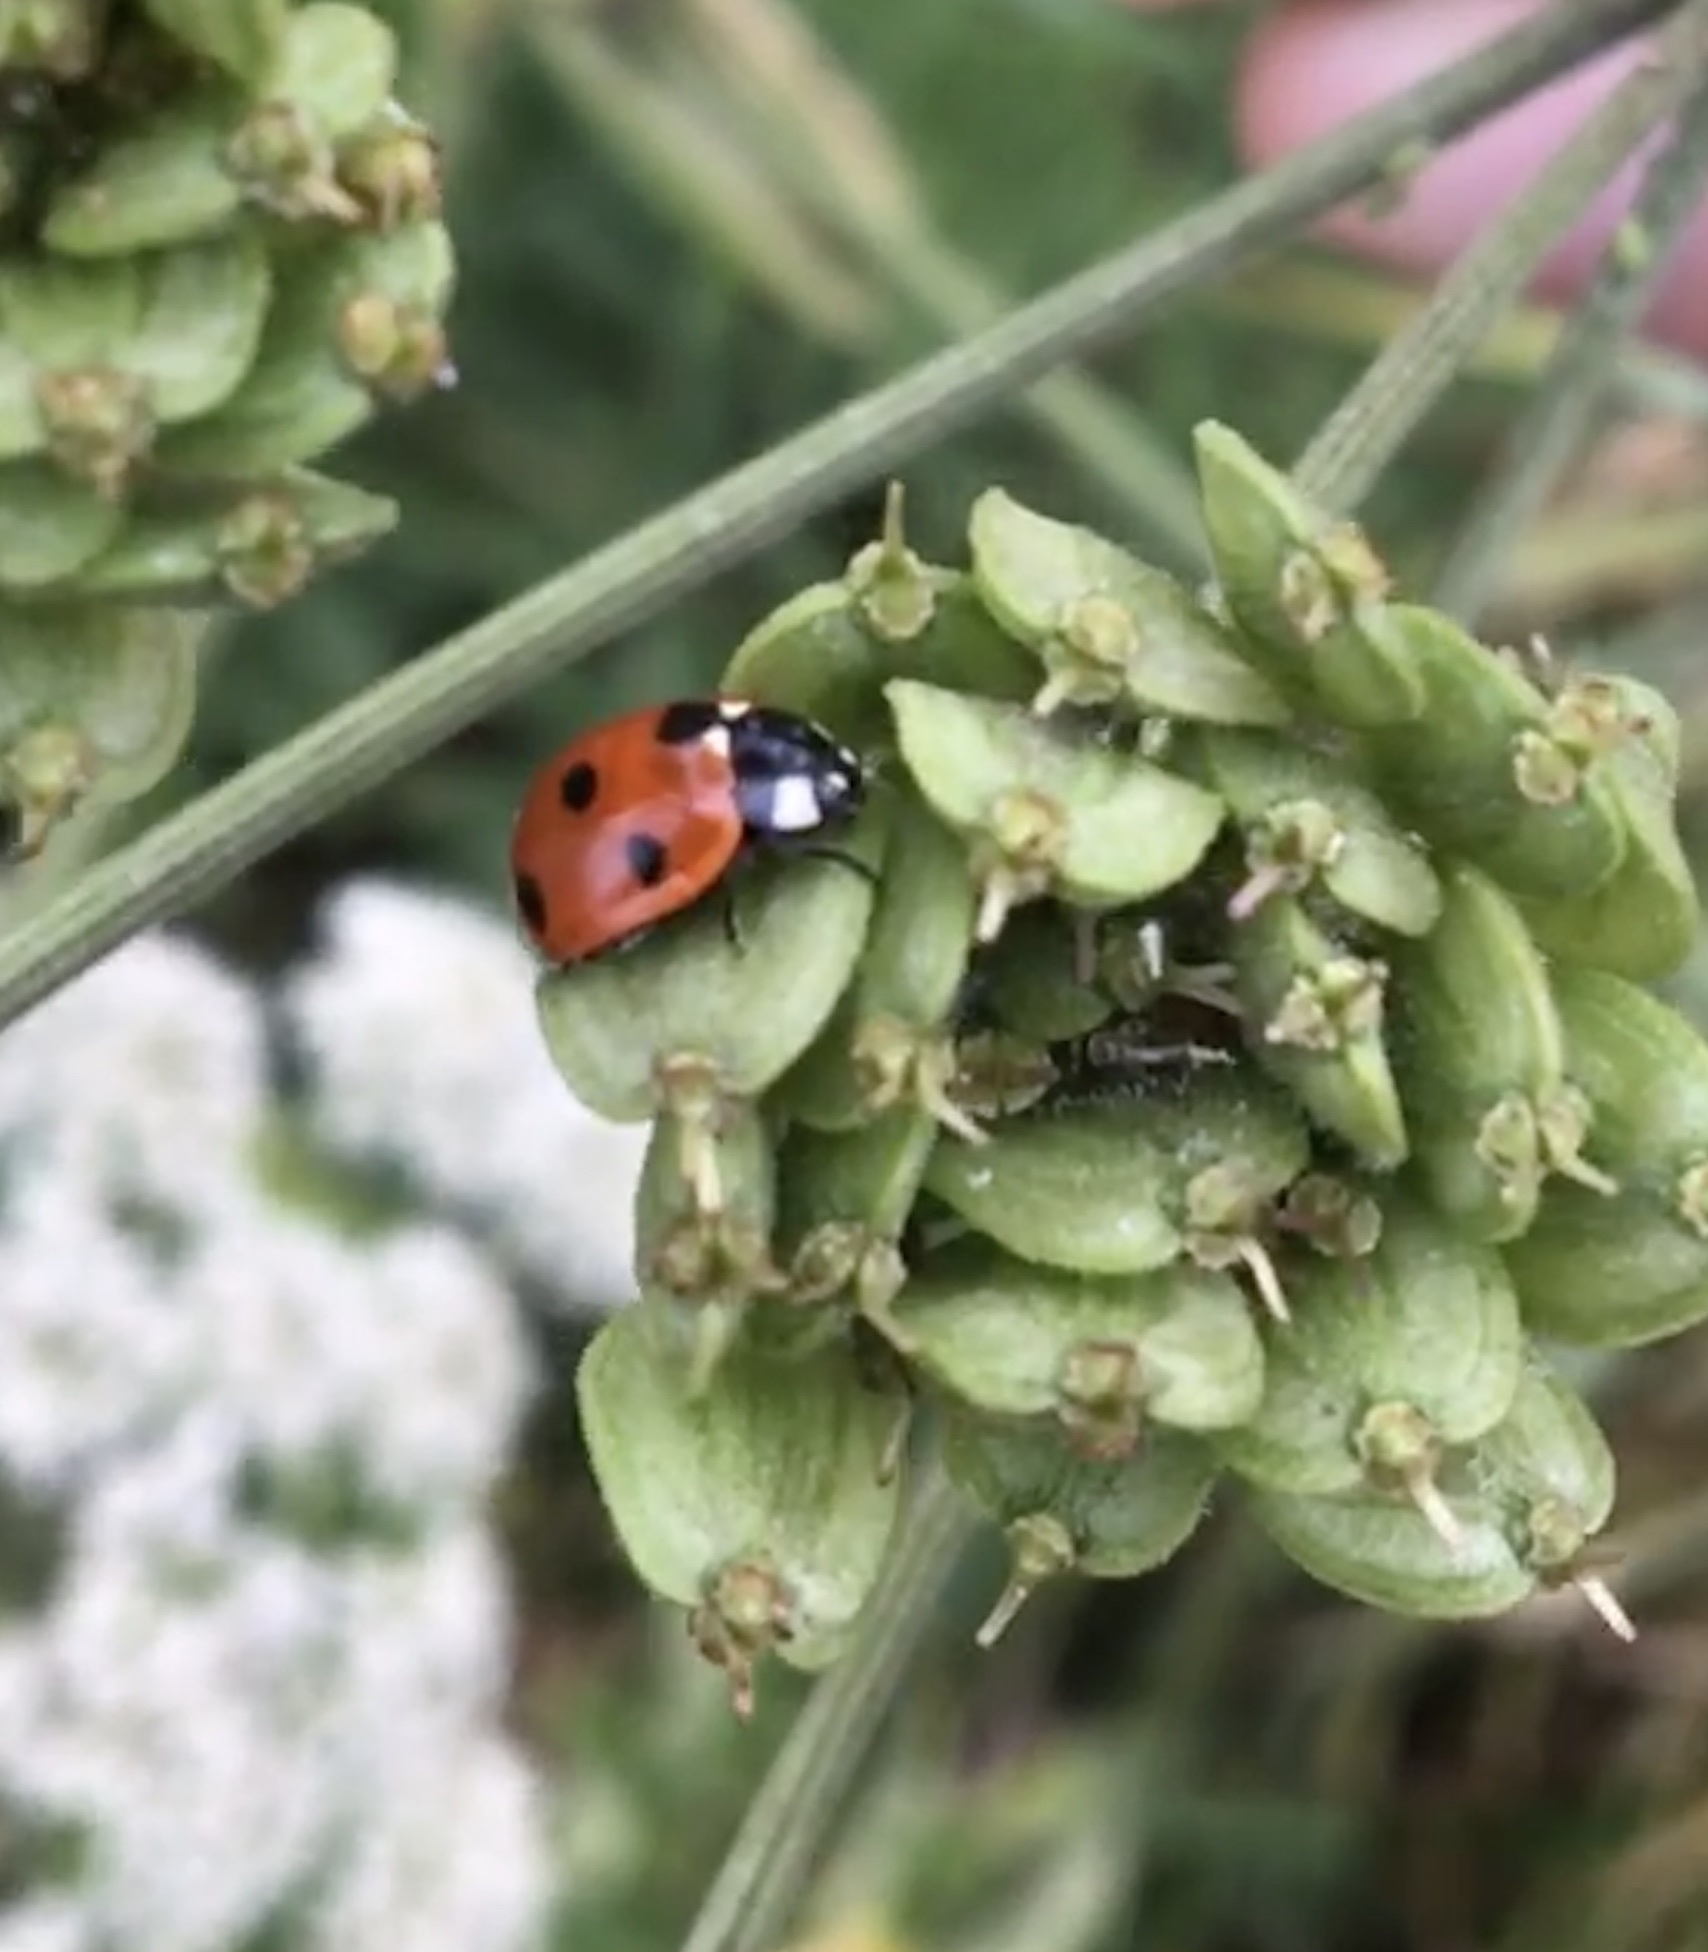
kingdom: Animalia
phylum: Arthropoda
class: Insecta
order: Coleoptera
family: Coccinellidae
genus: Coccinella
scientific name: Coccinella septempunctata
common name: Sevenspotted lady beetle
